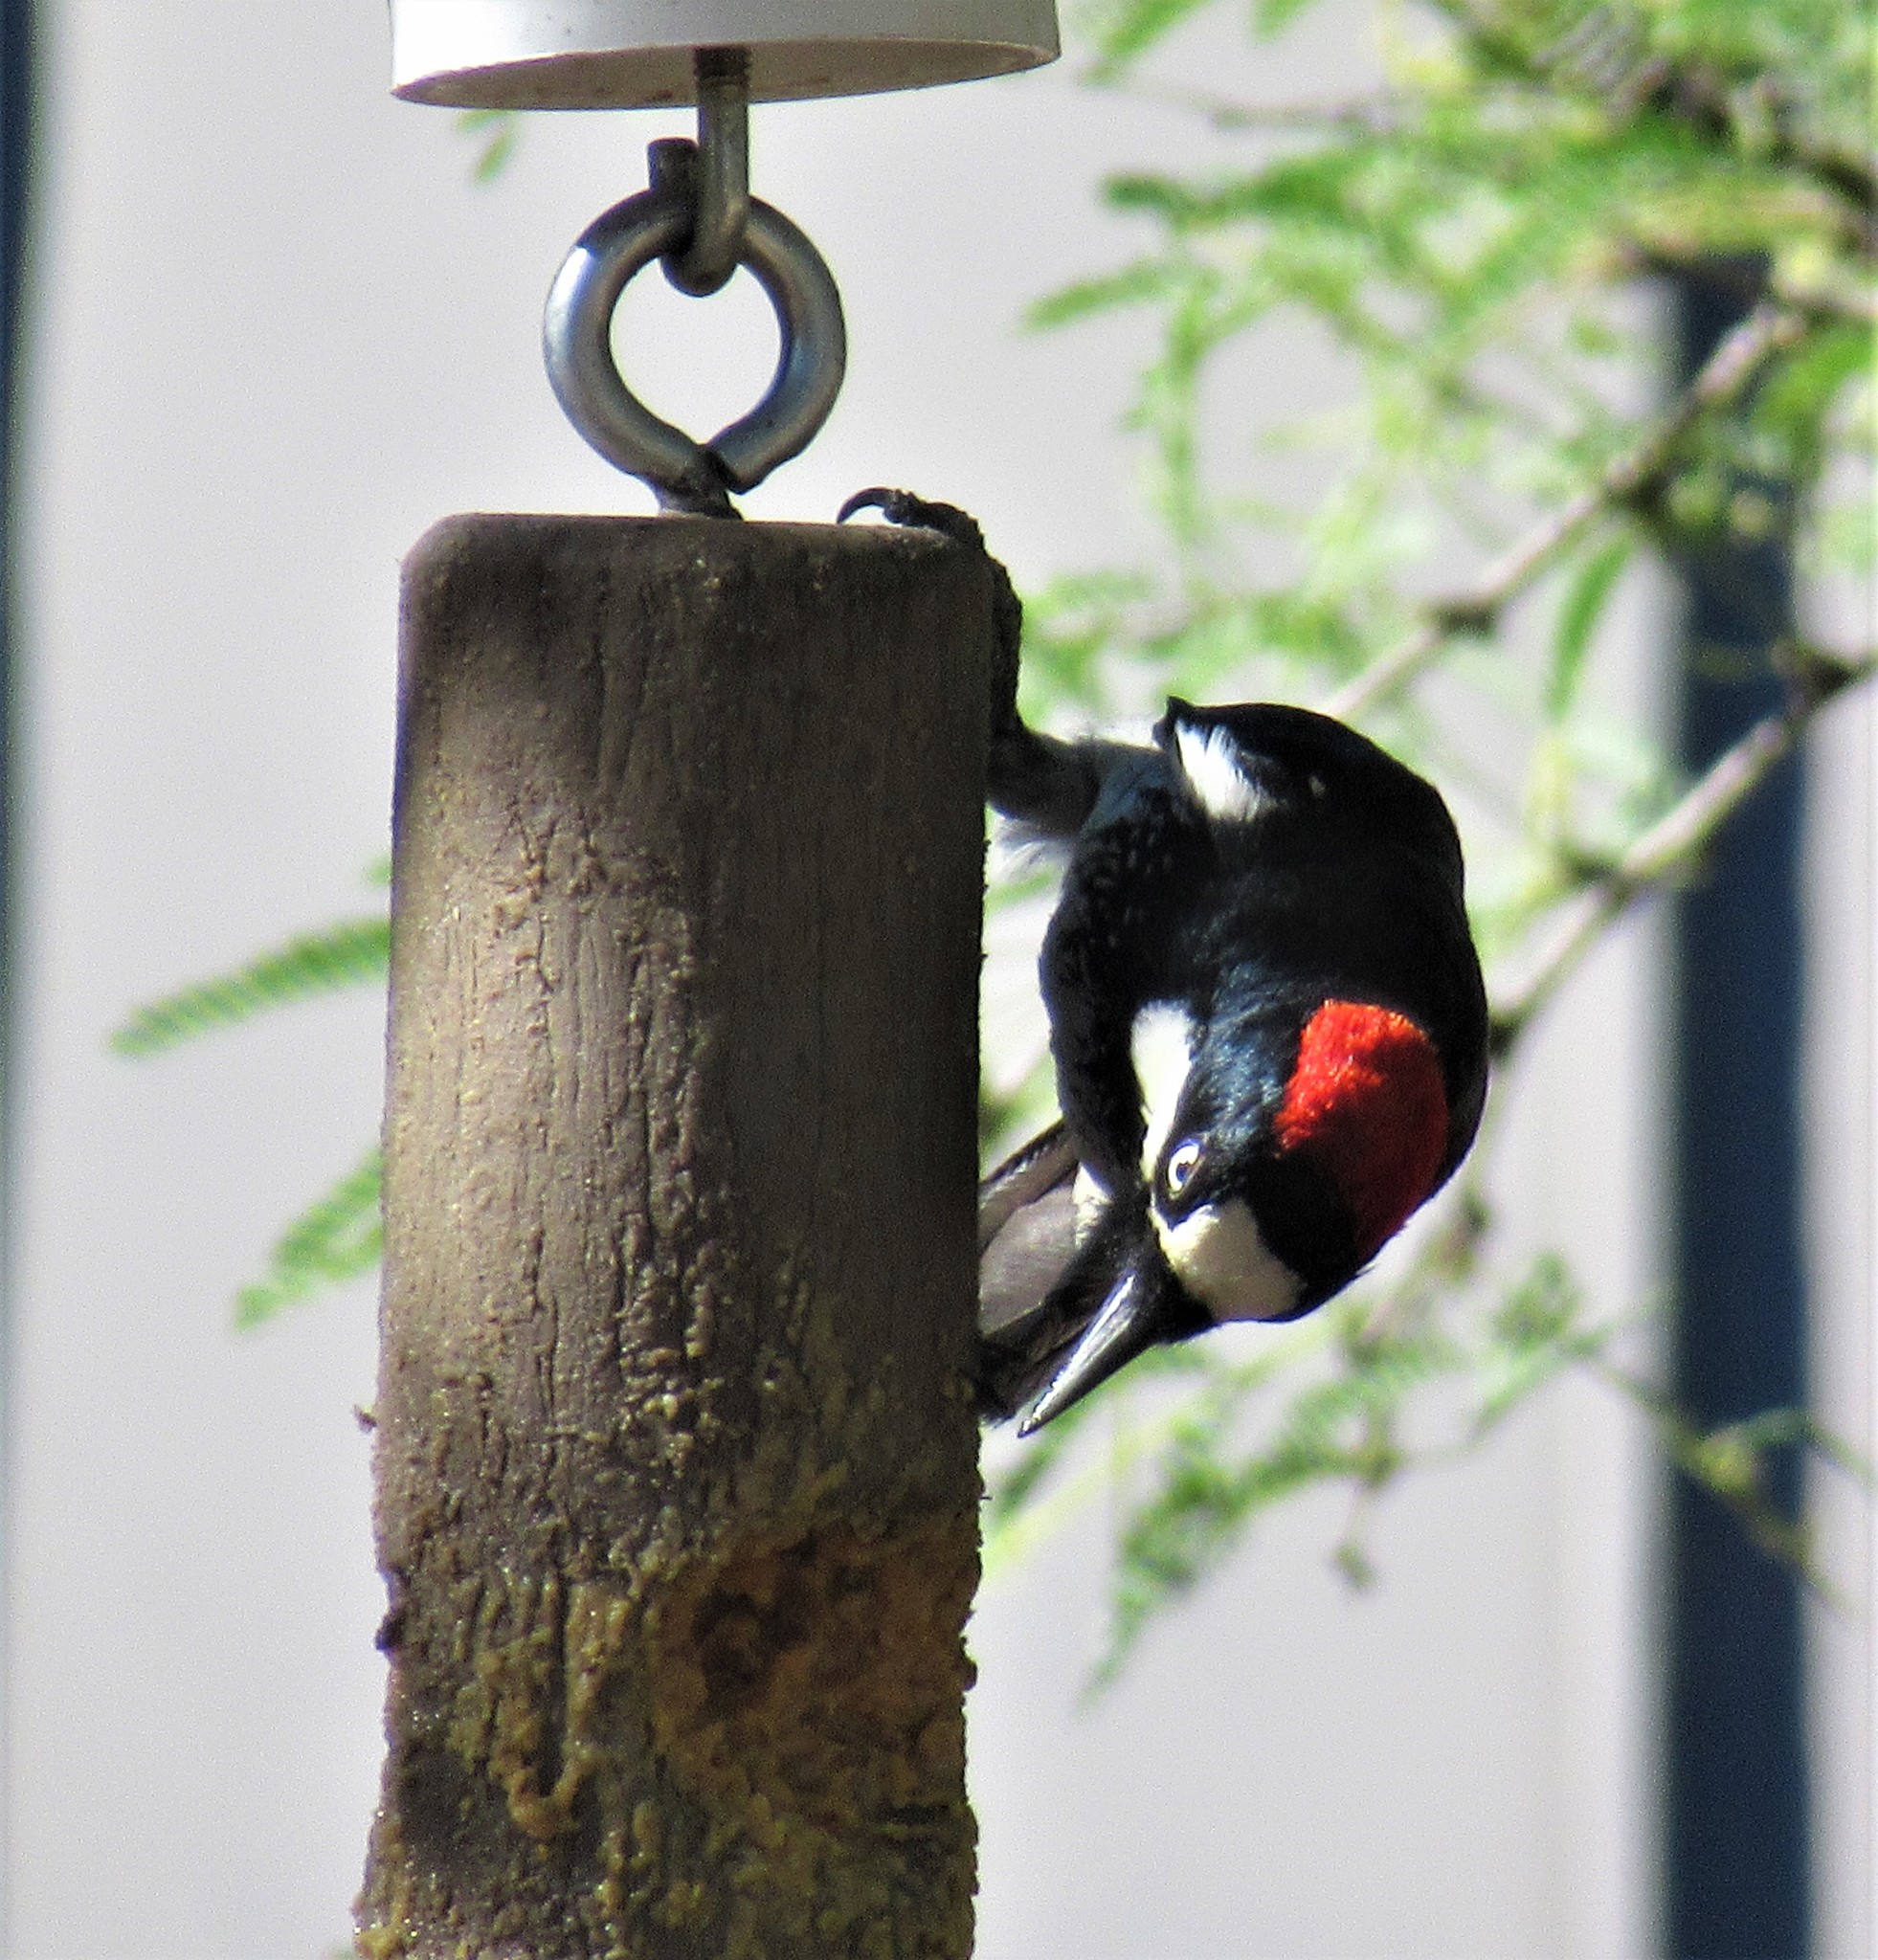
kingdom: Animalia
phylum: Chordata
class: Aves
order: Piciformes
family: Picidae
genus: Melanerpes
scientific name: Melanerpes formicivorus
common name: Acorn woodpecker
